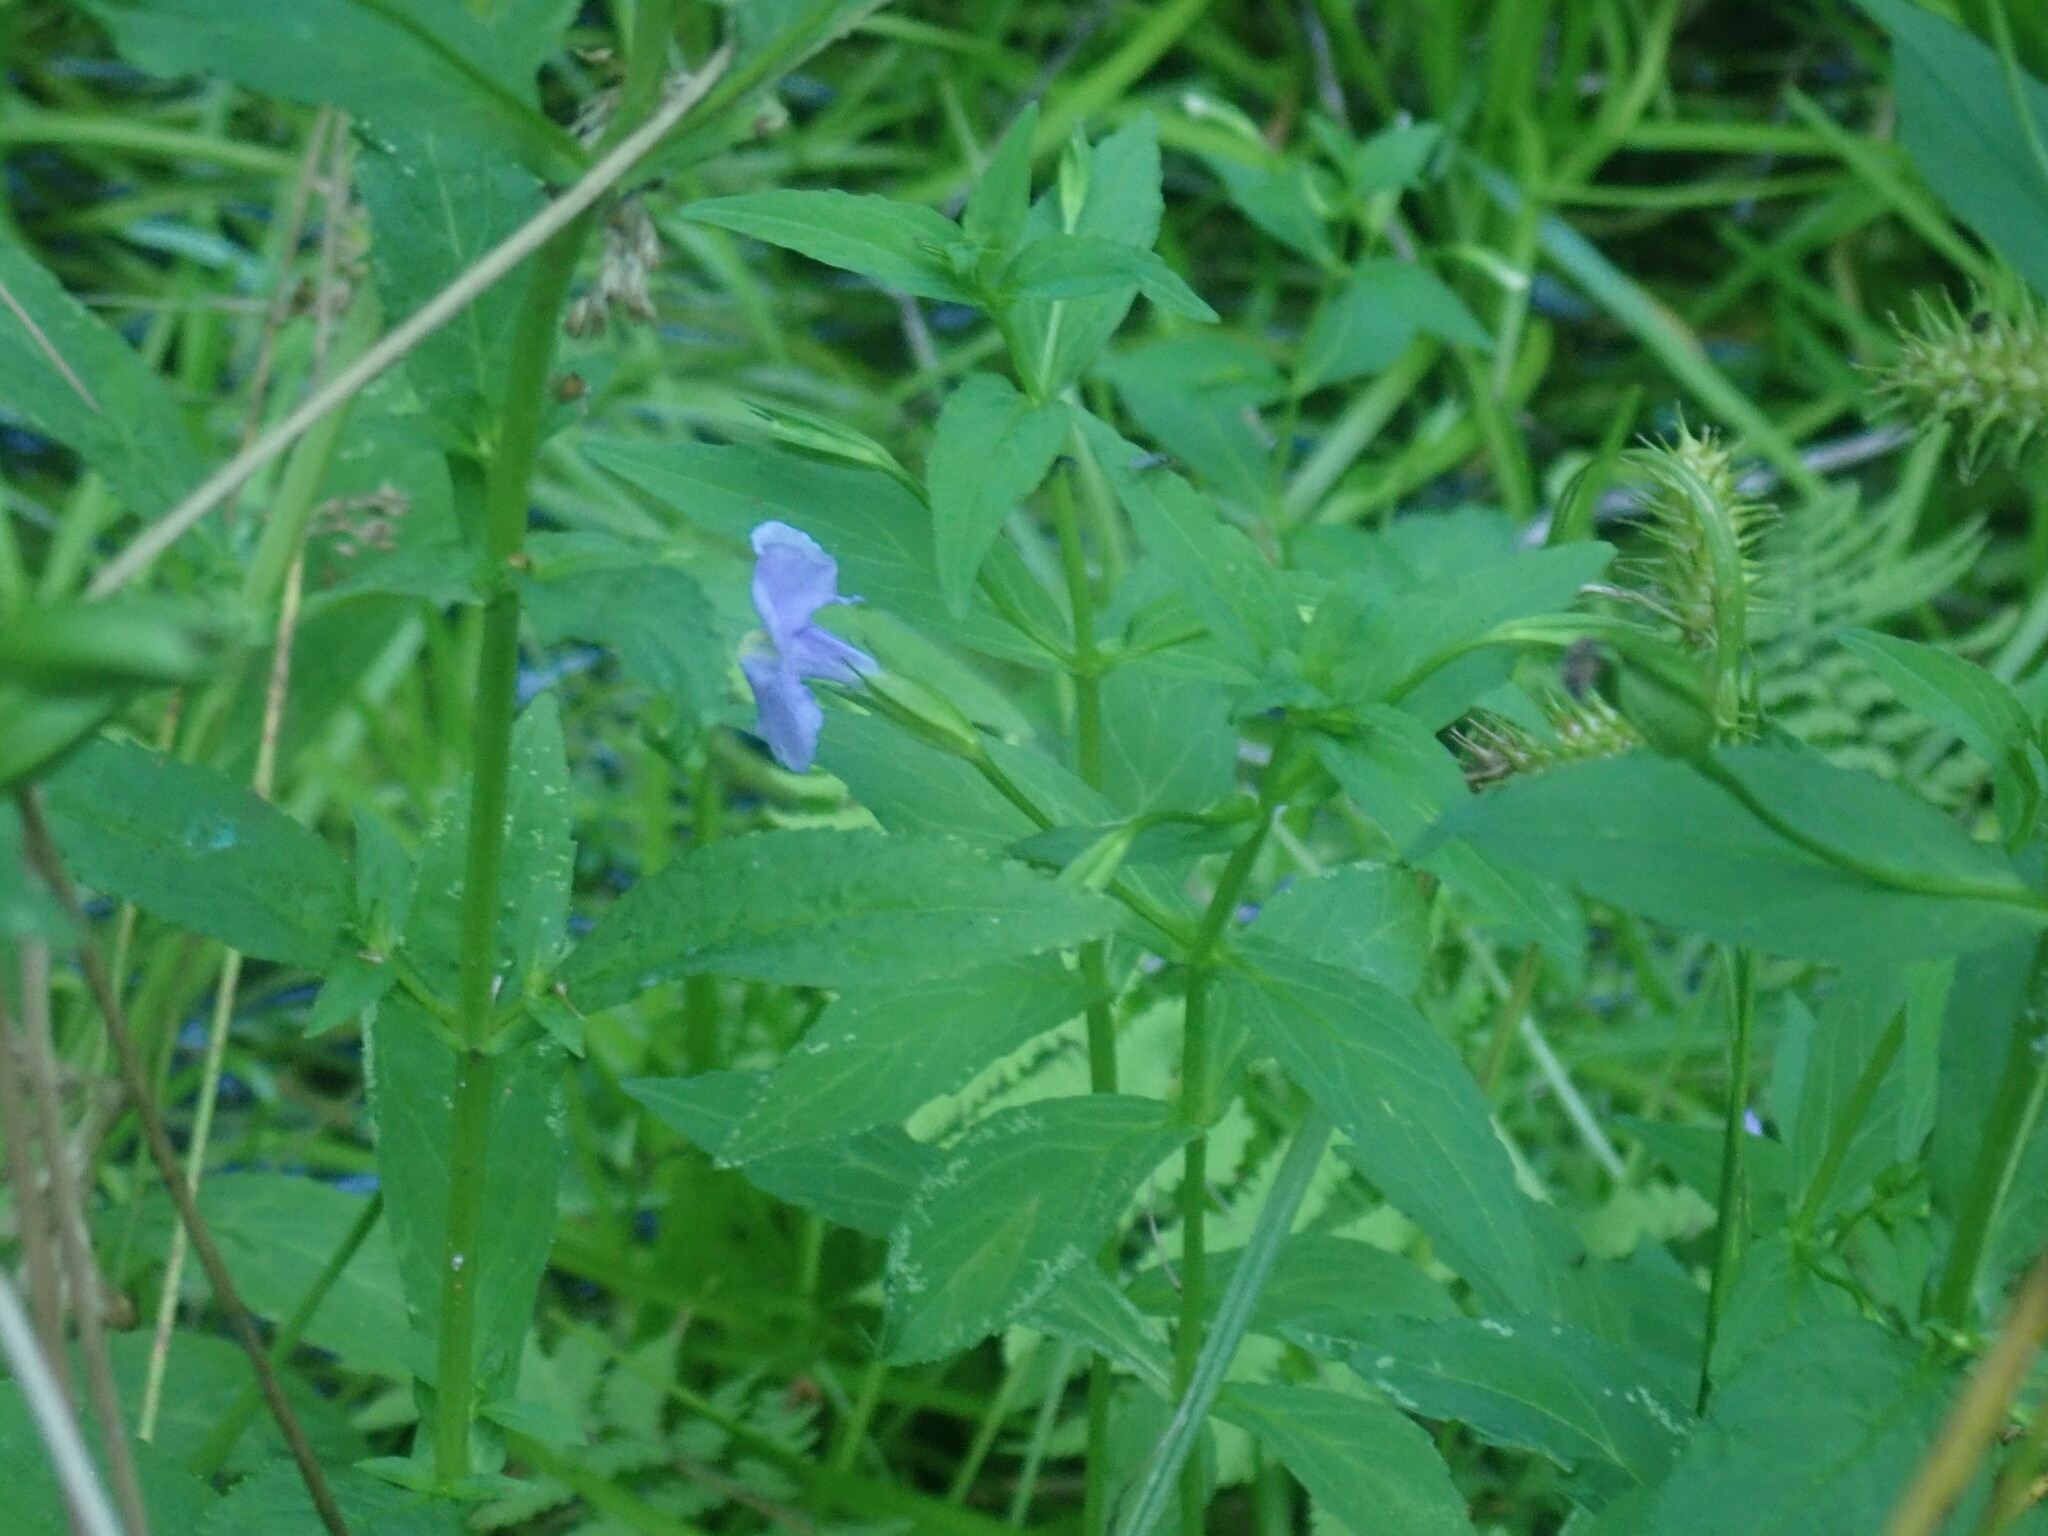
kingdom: Plantae
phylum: Tracheophyta
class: Magnoliopsida
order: Lamiales
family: Phrymaceae
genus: Mimulus
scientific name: Mimulus ringens
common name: Allegheny monkeyflower
